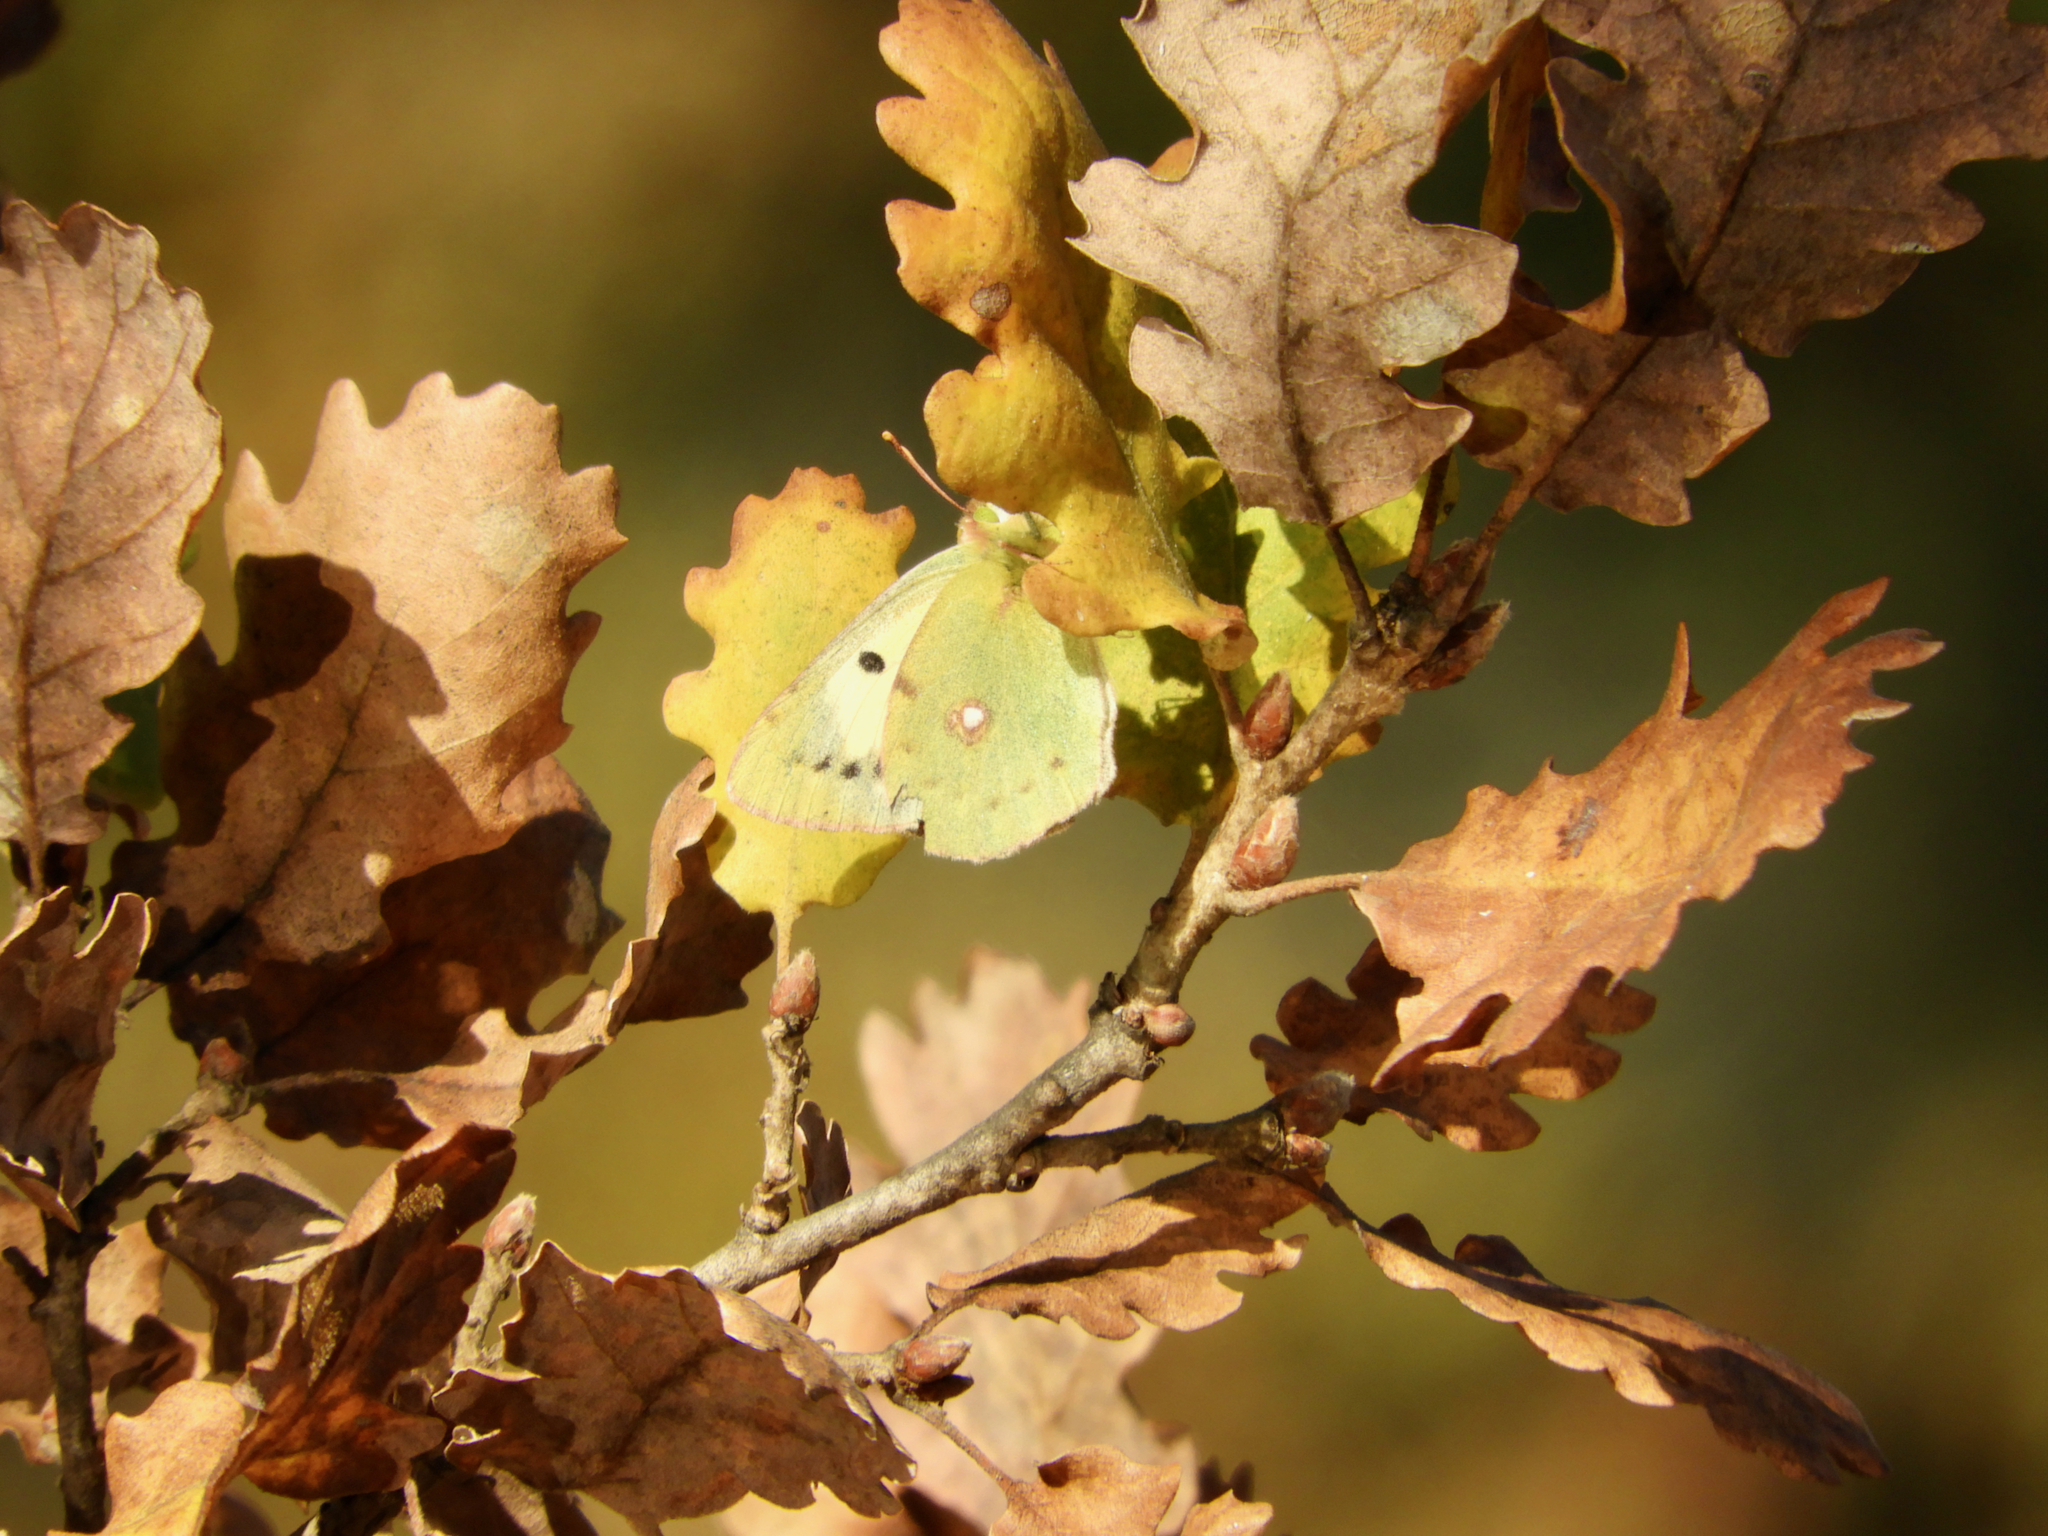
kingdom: Animalia
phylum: Arthropoda
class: Insecta
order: Lepidoptera
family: Pieridae
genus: Colias
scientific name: Colias croceus
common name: Clouded yellow
